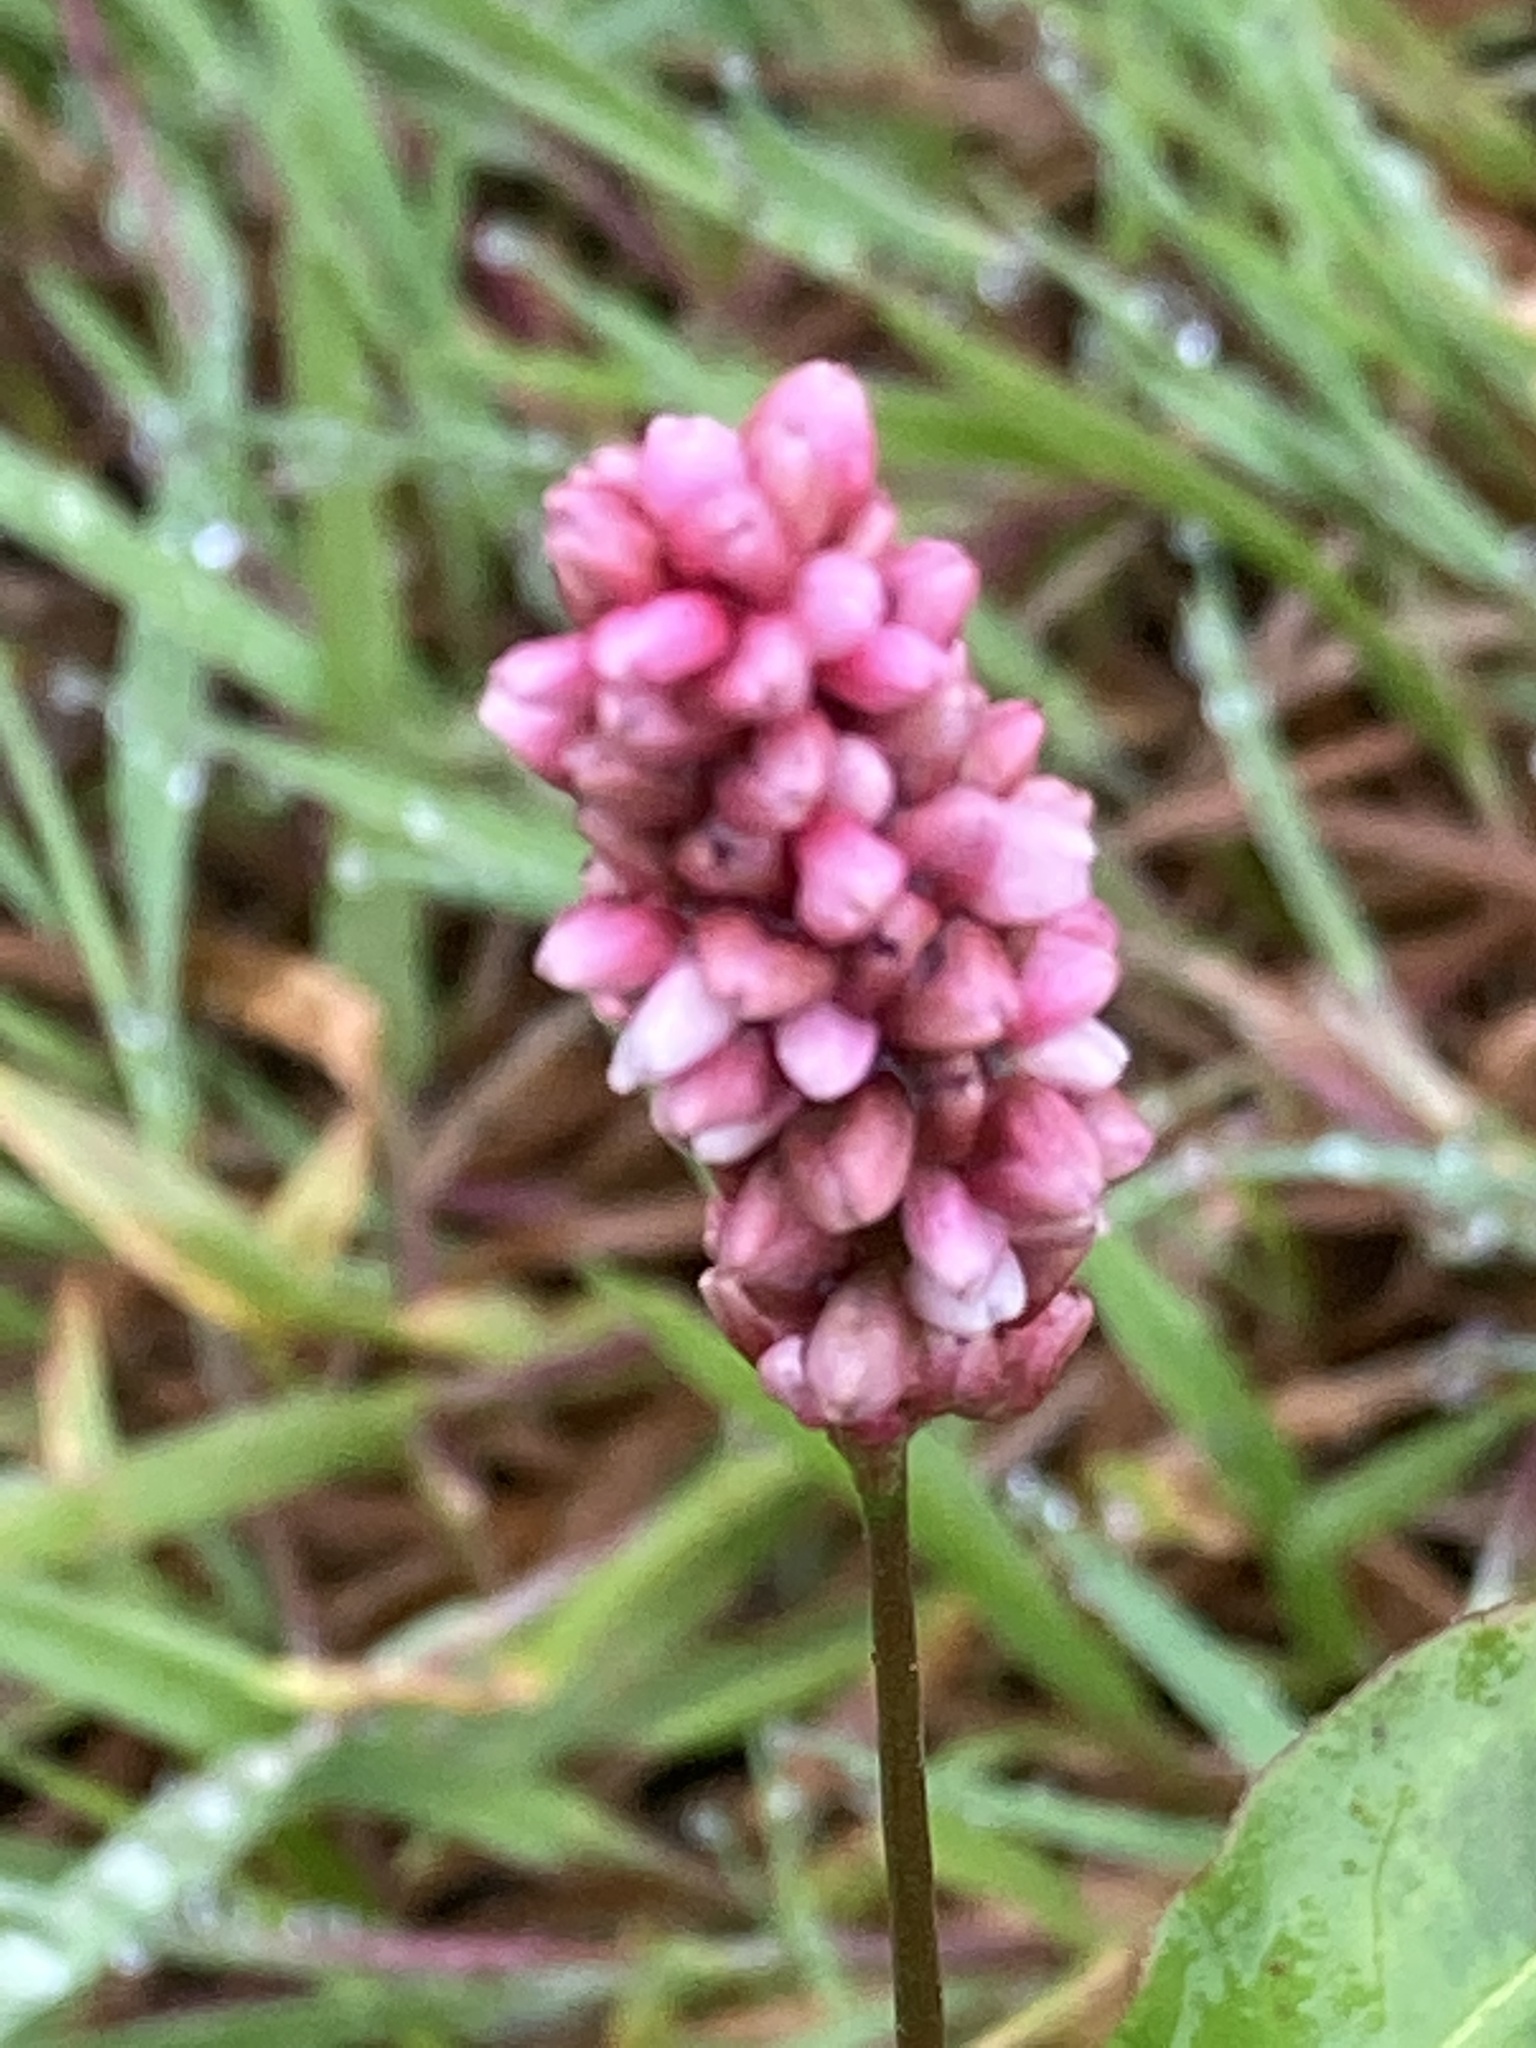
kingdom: Plantae
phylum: Tracheophyta
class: Magnoliopsida
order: Caryophyllales
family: Polygonaceae
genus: Persicaria
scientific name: Persicaria maculosa
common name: Redshank
